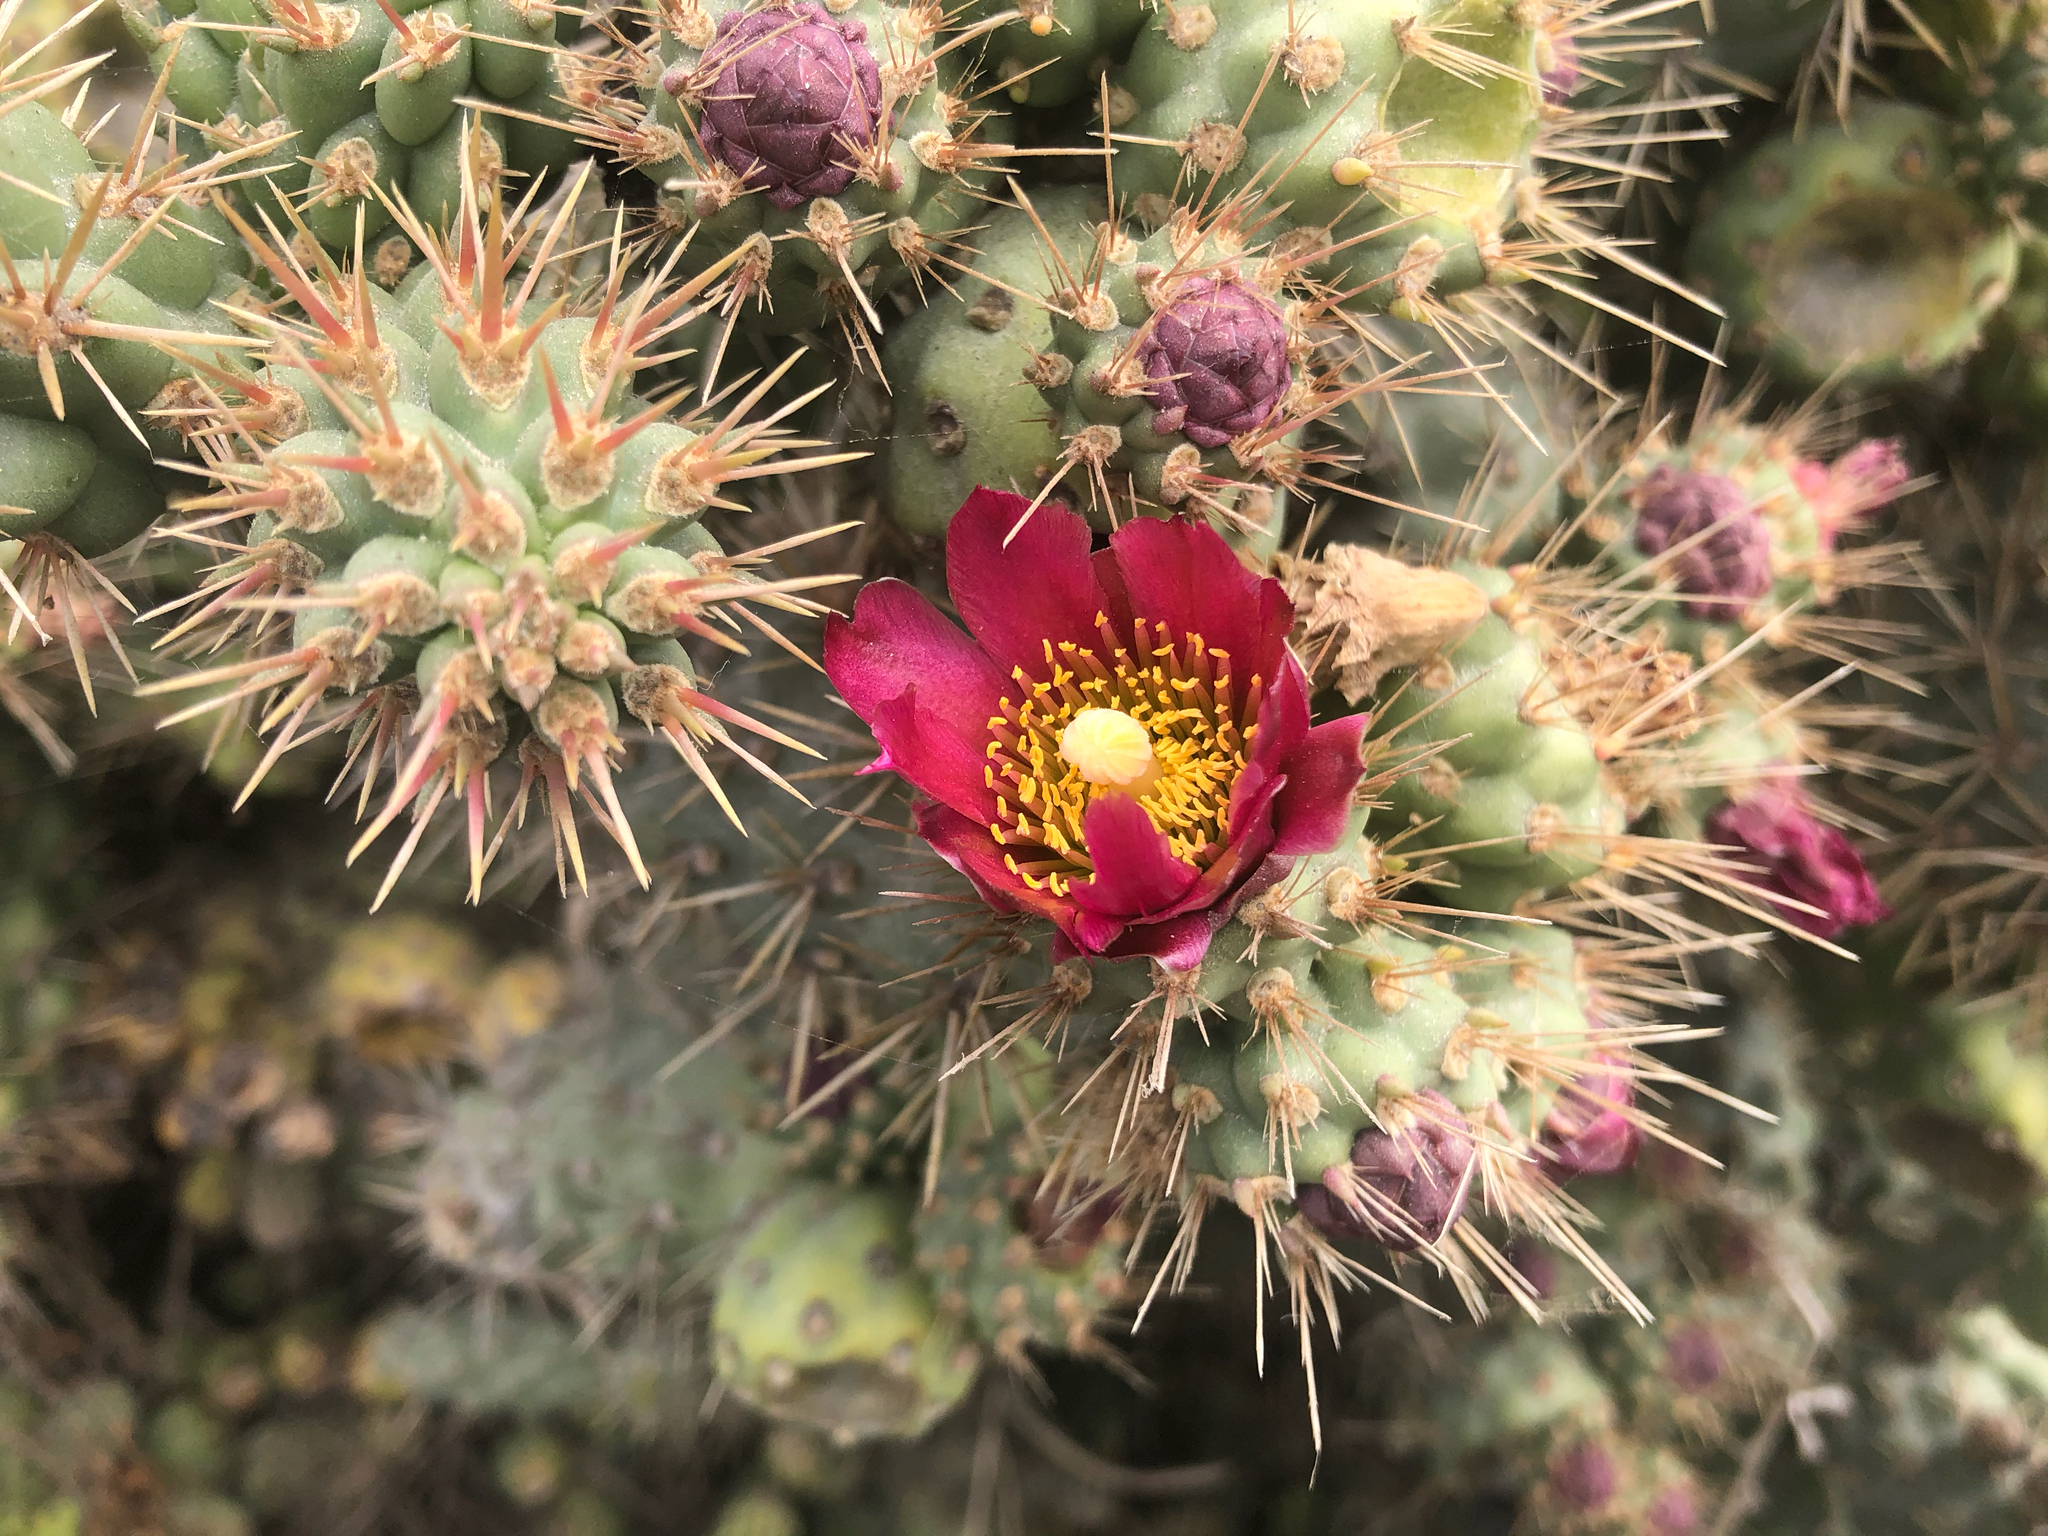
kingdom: Plantae
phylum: Tracheophyta
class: Magnoliopsida
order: Caryophyllales
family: Cactaceae
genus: Cylindropuntia
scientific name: Cylindropuntia prolifera
